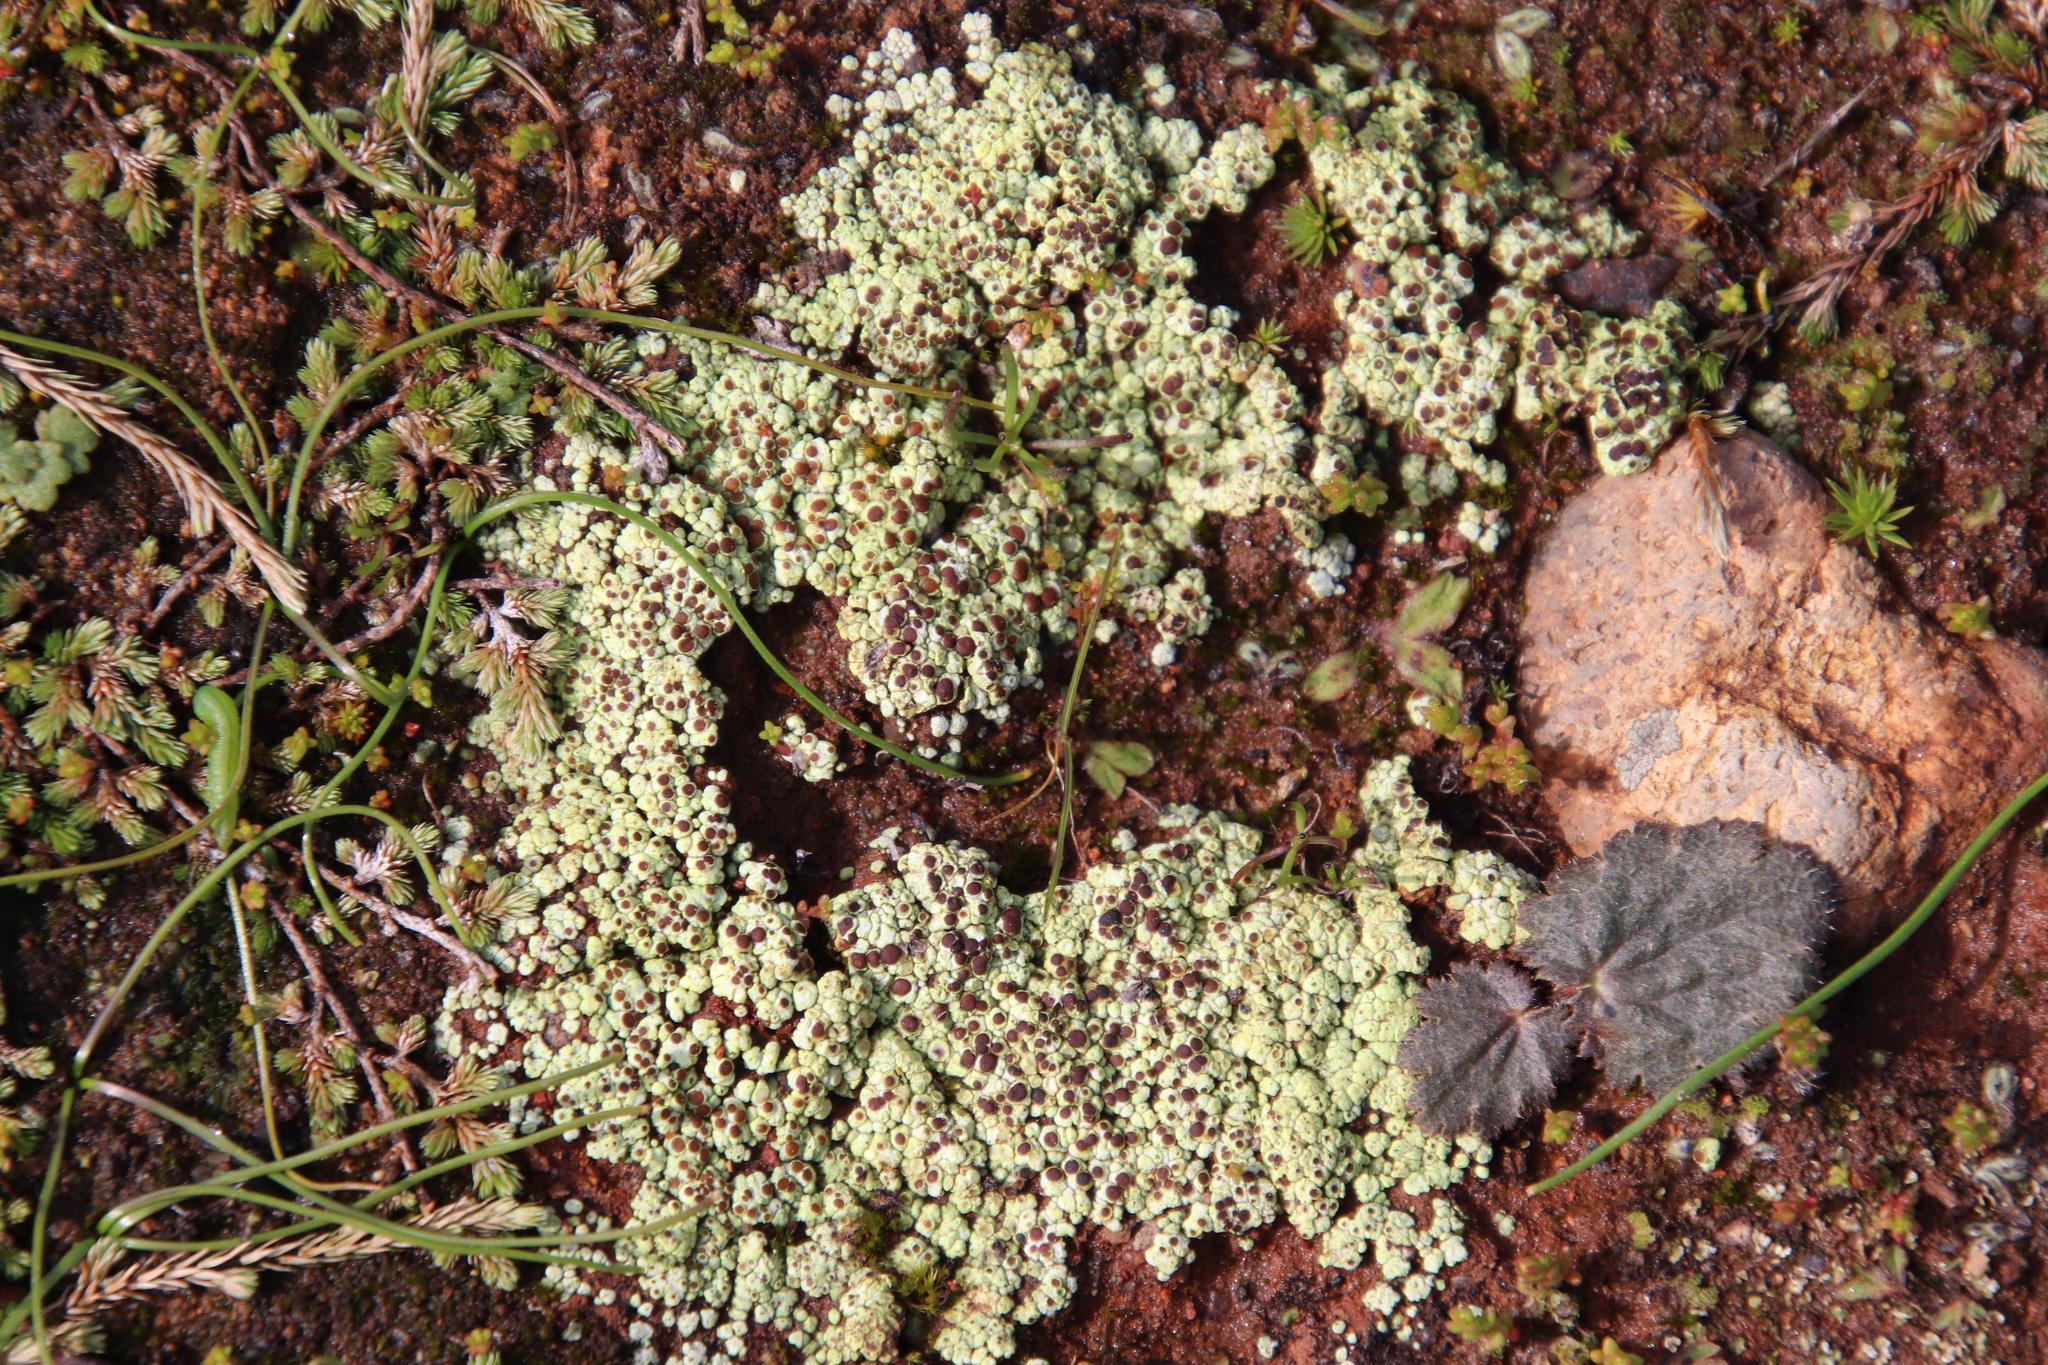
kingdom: Fungi
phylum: Ascomycota
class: Lecanoromycetes
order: Acarosporales
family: Acarosporaceae
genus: Acarospora
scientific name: Acarospora schleicheri
